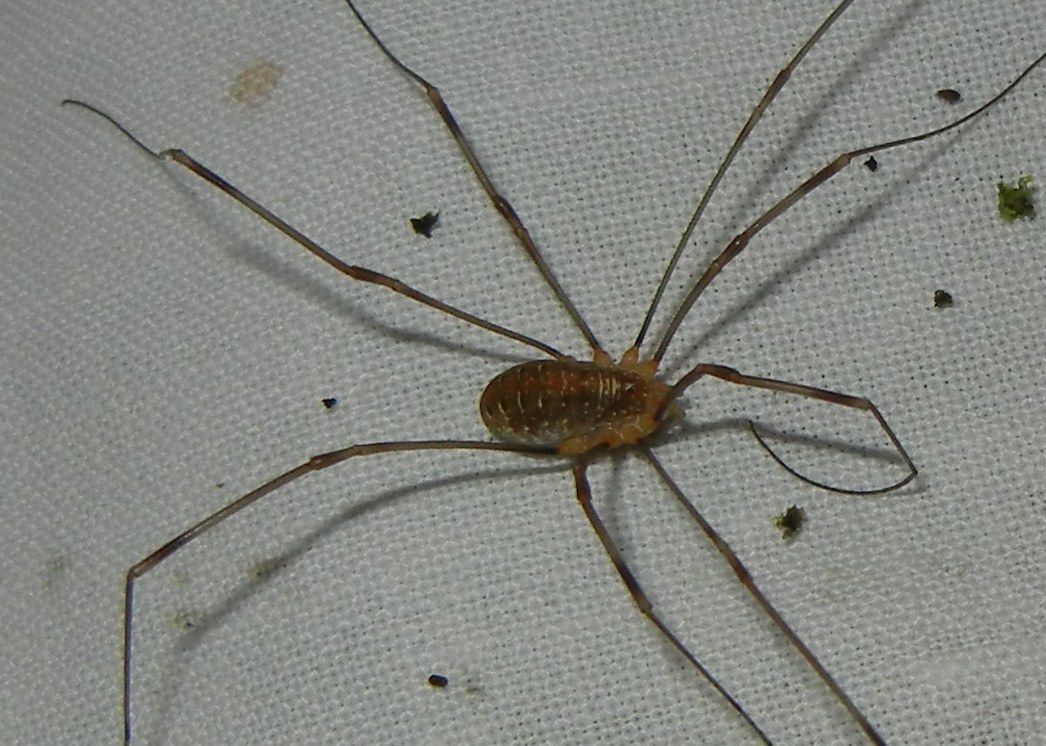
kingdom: Animalia
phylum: Arthropoda
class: Arachnida
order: Opiliones
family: Phalangiidae
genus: Opilio
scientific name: Opilio canestrinii
